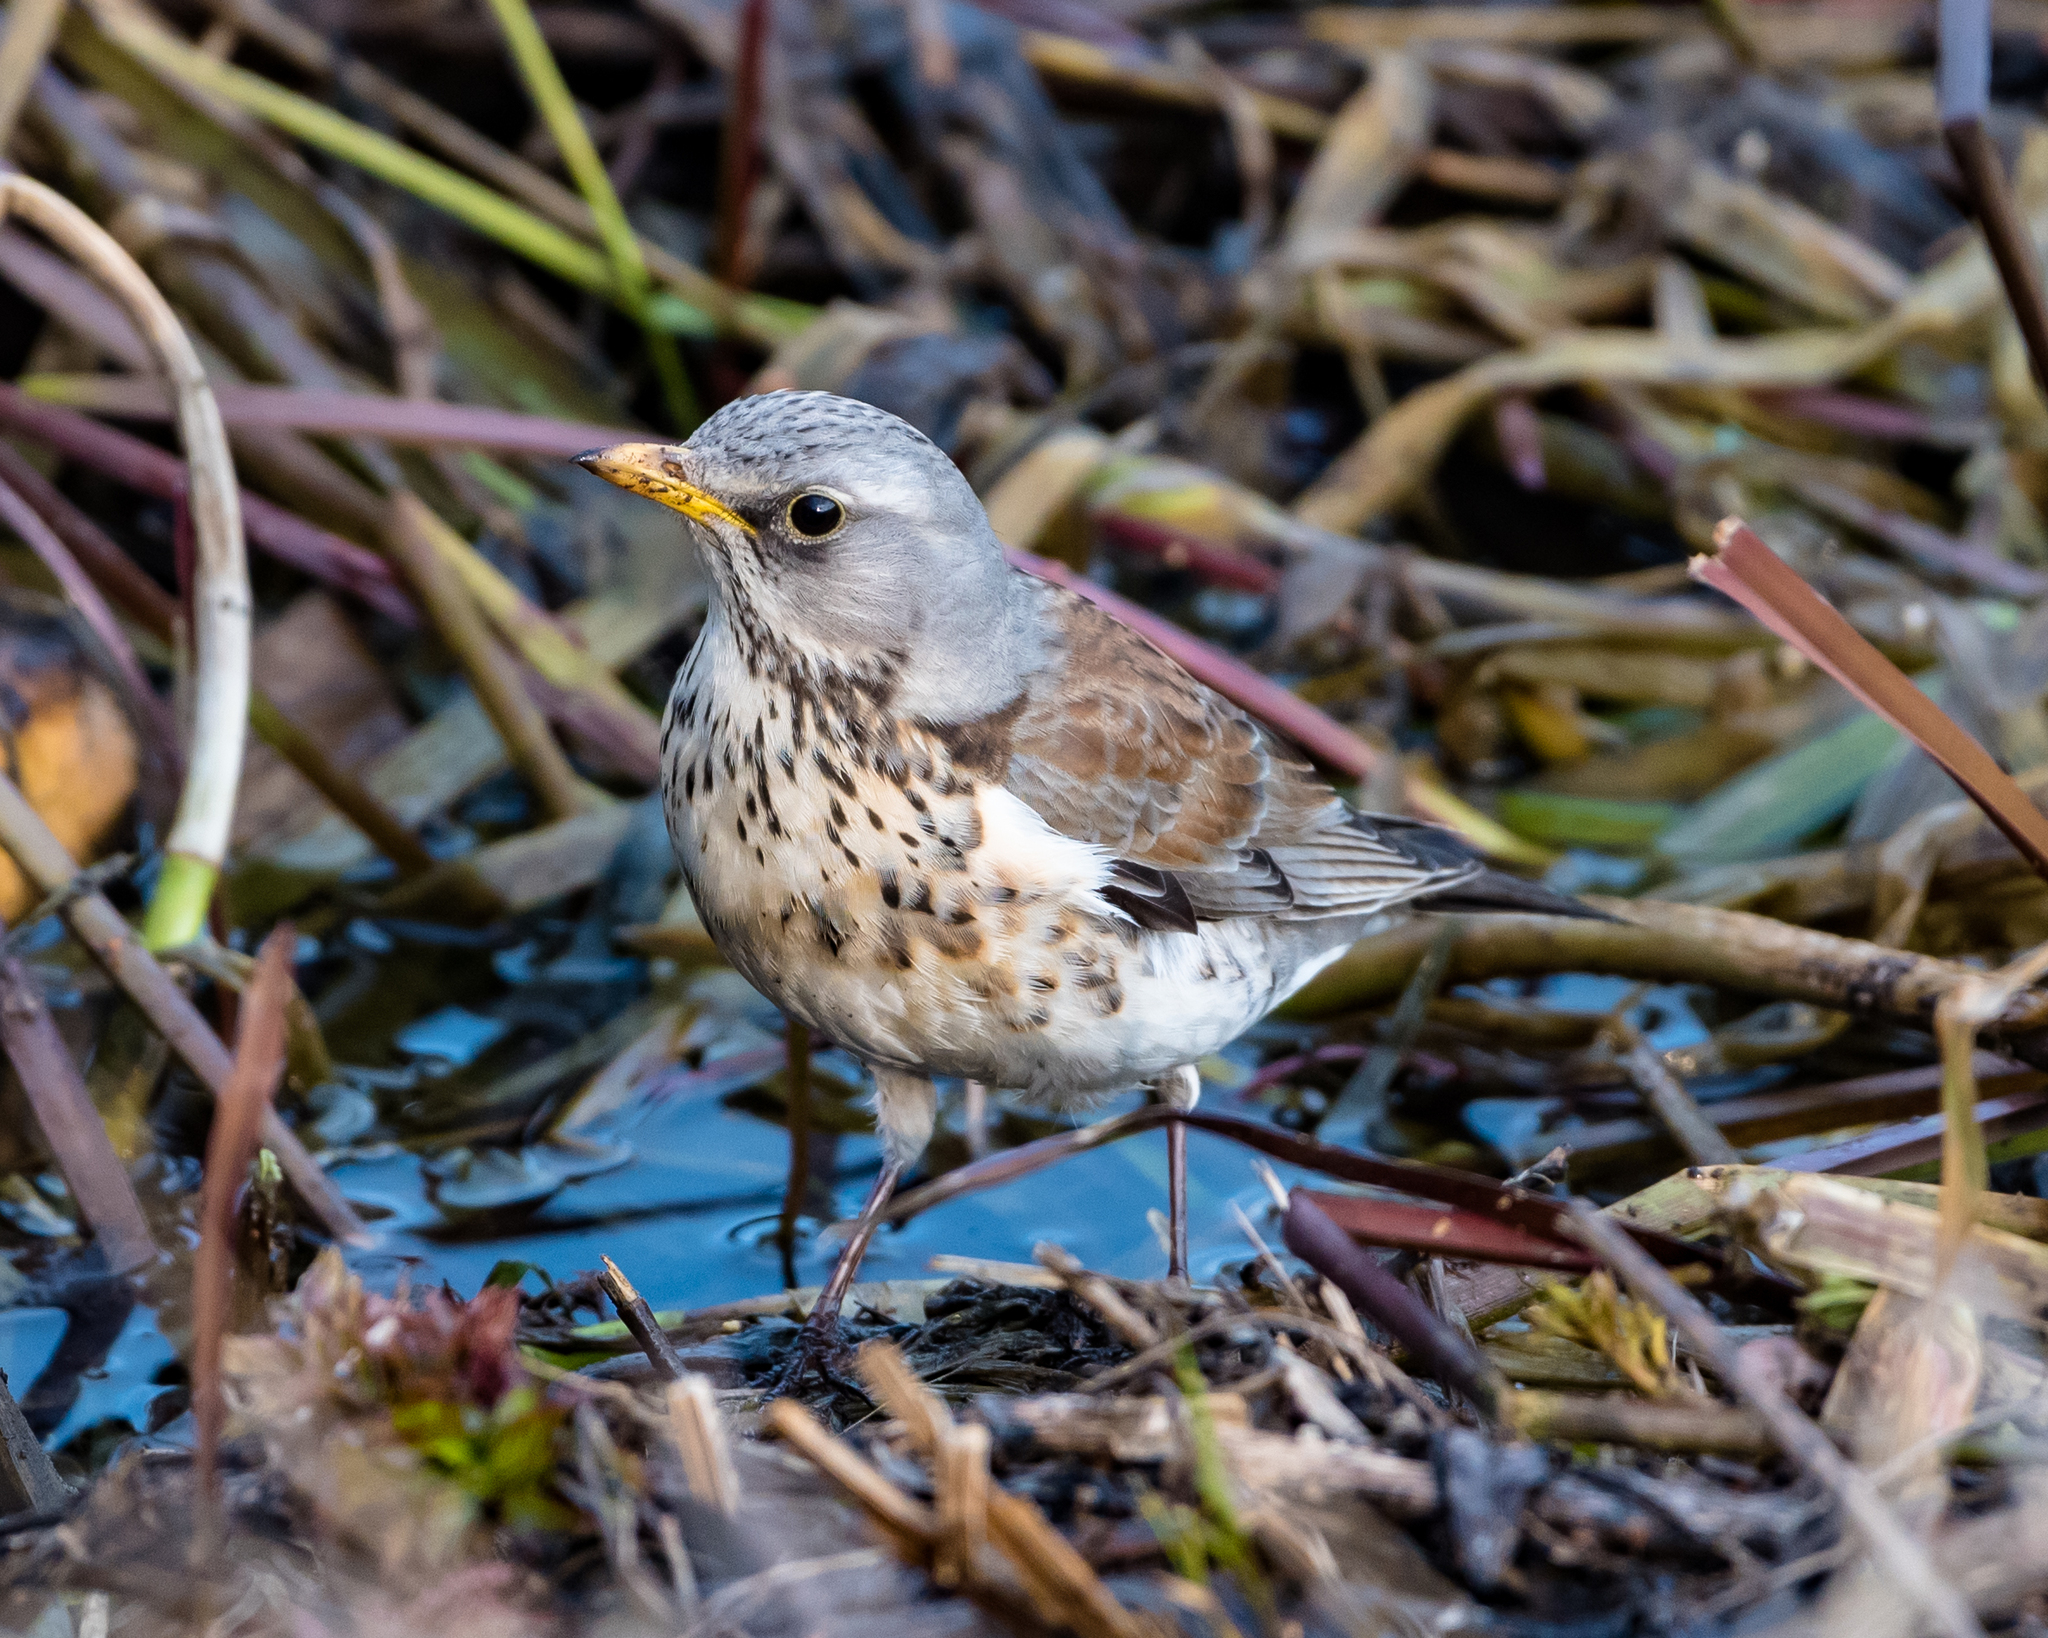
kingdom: Animalia
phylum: Chordata
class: Aves
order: Passeriformes
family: Turdidae
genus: Turdus
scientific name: Turdus pilaris
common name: Fieldfare
